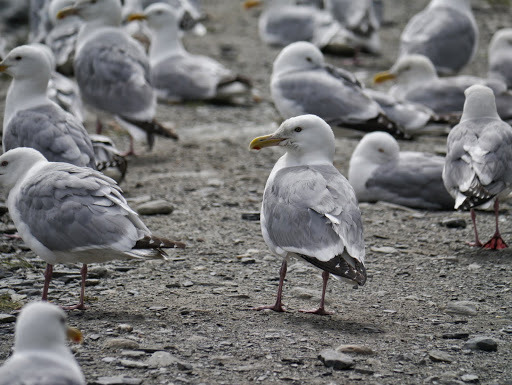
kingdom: Animalia
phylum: Chordata
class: Aves
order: Charadriiformes
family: Laridae
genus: Larus
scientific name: Larus argentatus
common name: Herring gull
